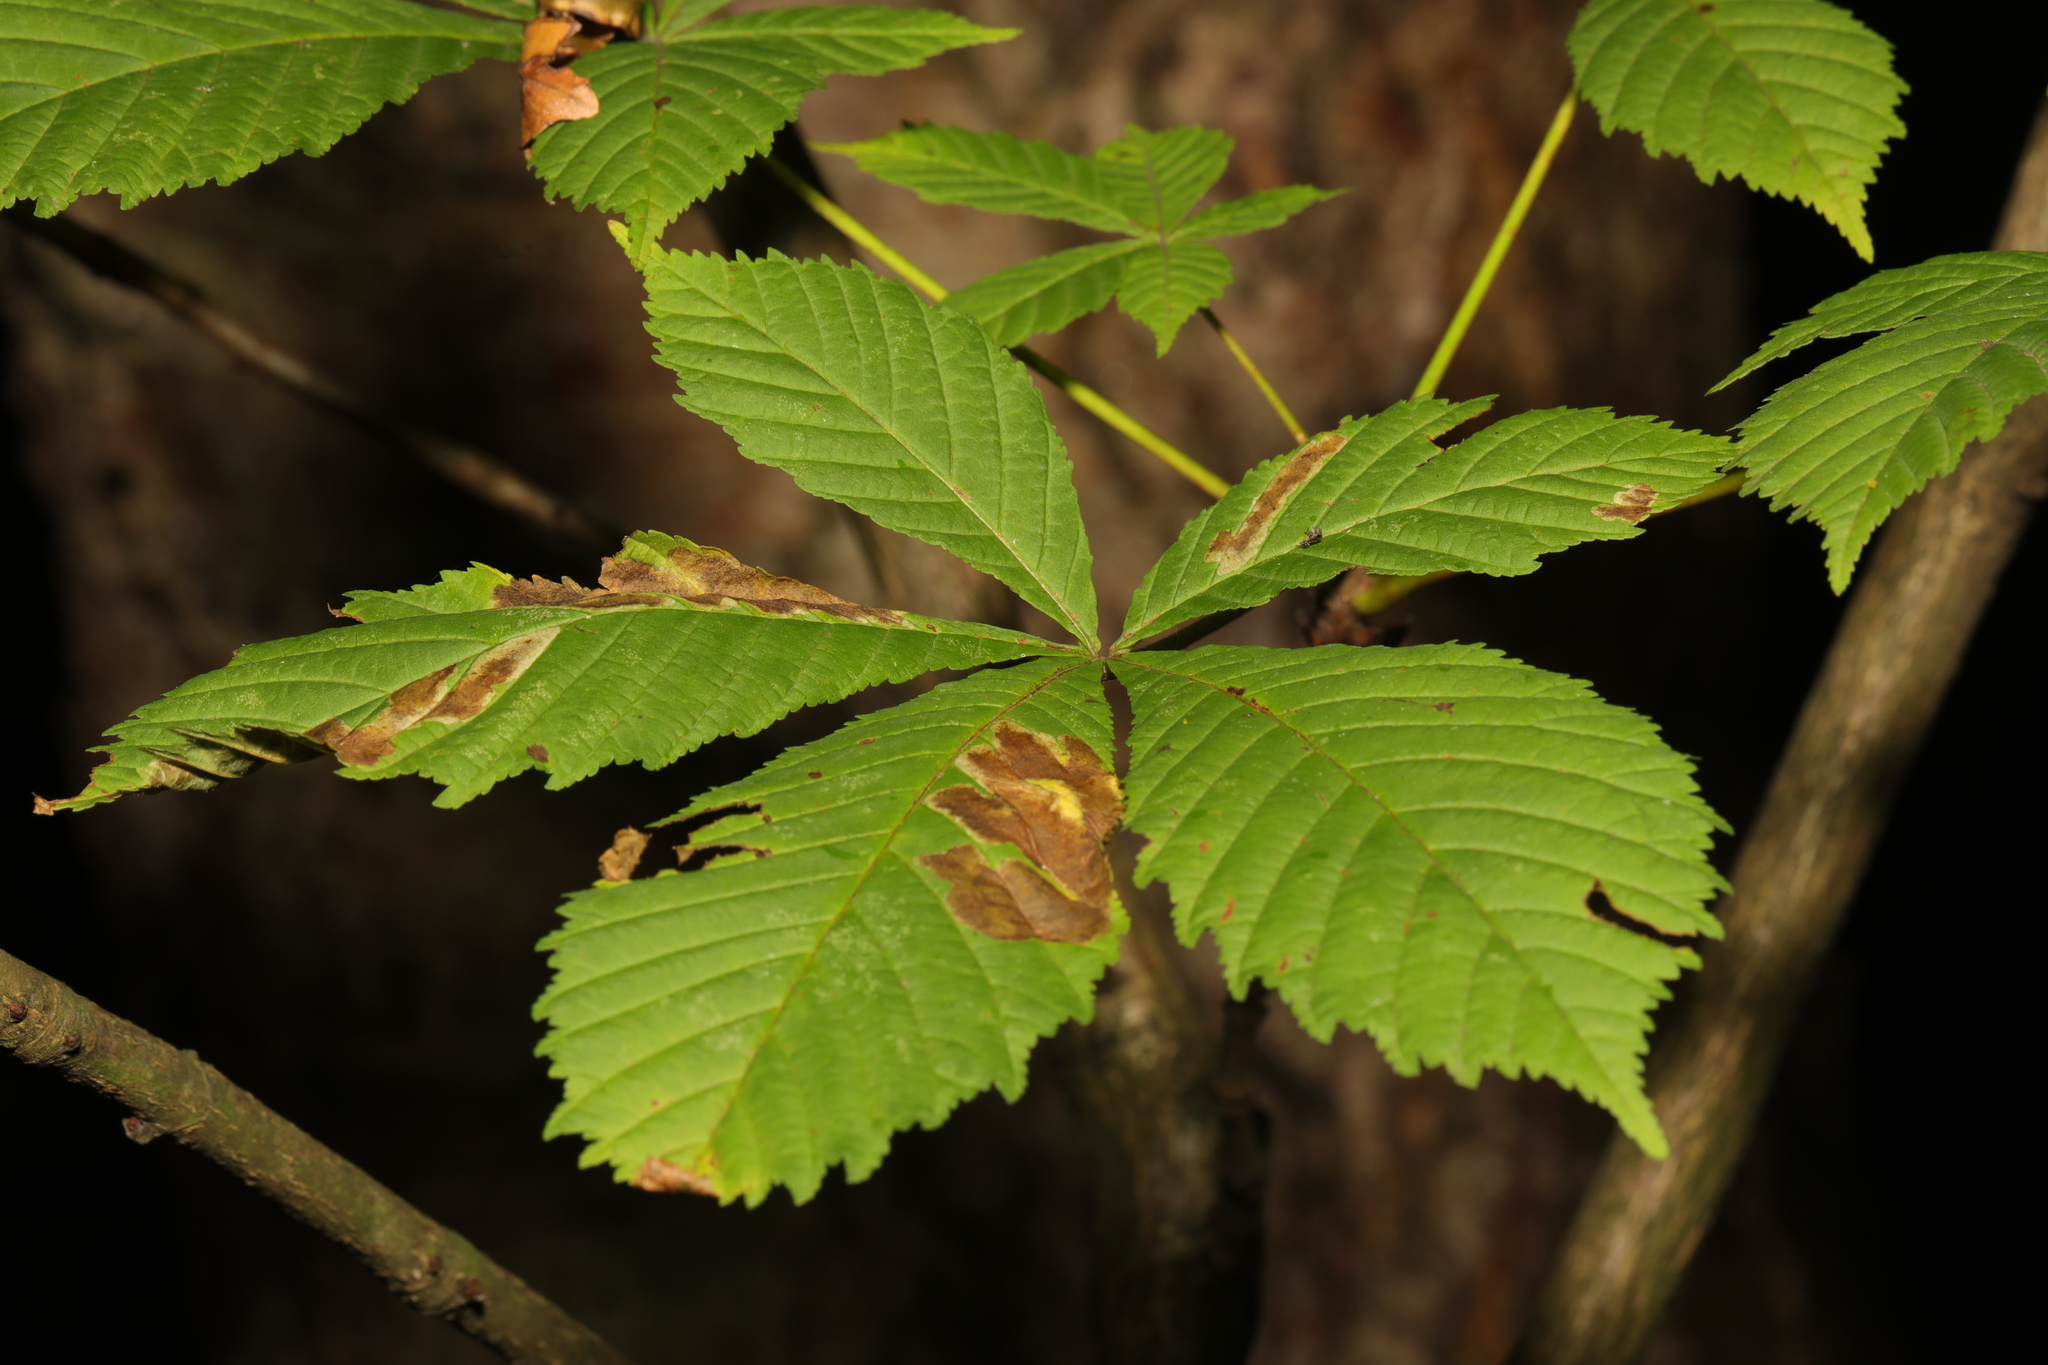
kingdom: Plantae
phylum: Tracheophyta
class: Magnoliopsida
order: Sapindales
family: Sapindaceae
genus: Aesculus
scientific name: Aesculus hippocastanum
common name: Horse-chestnut
